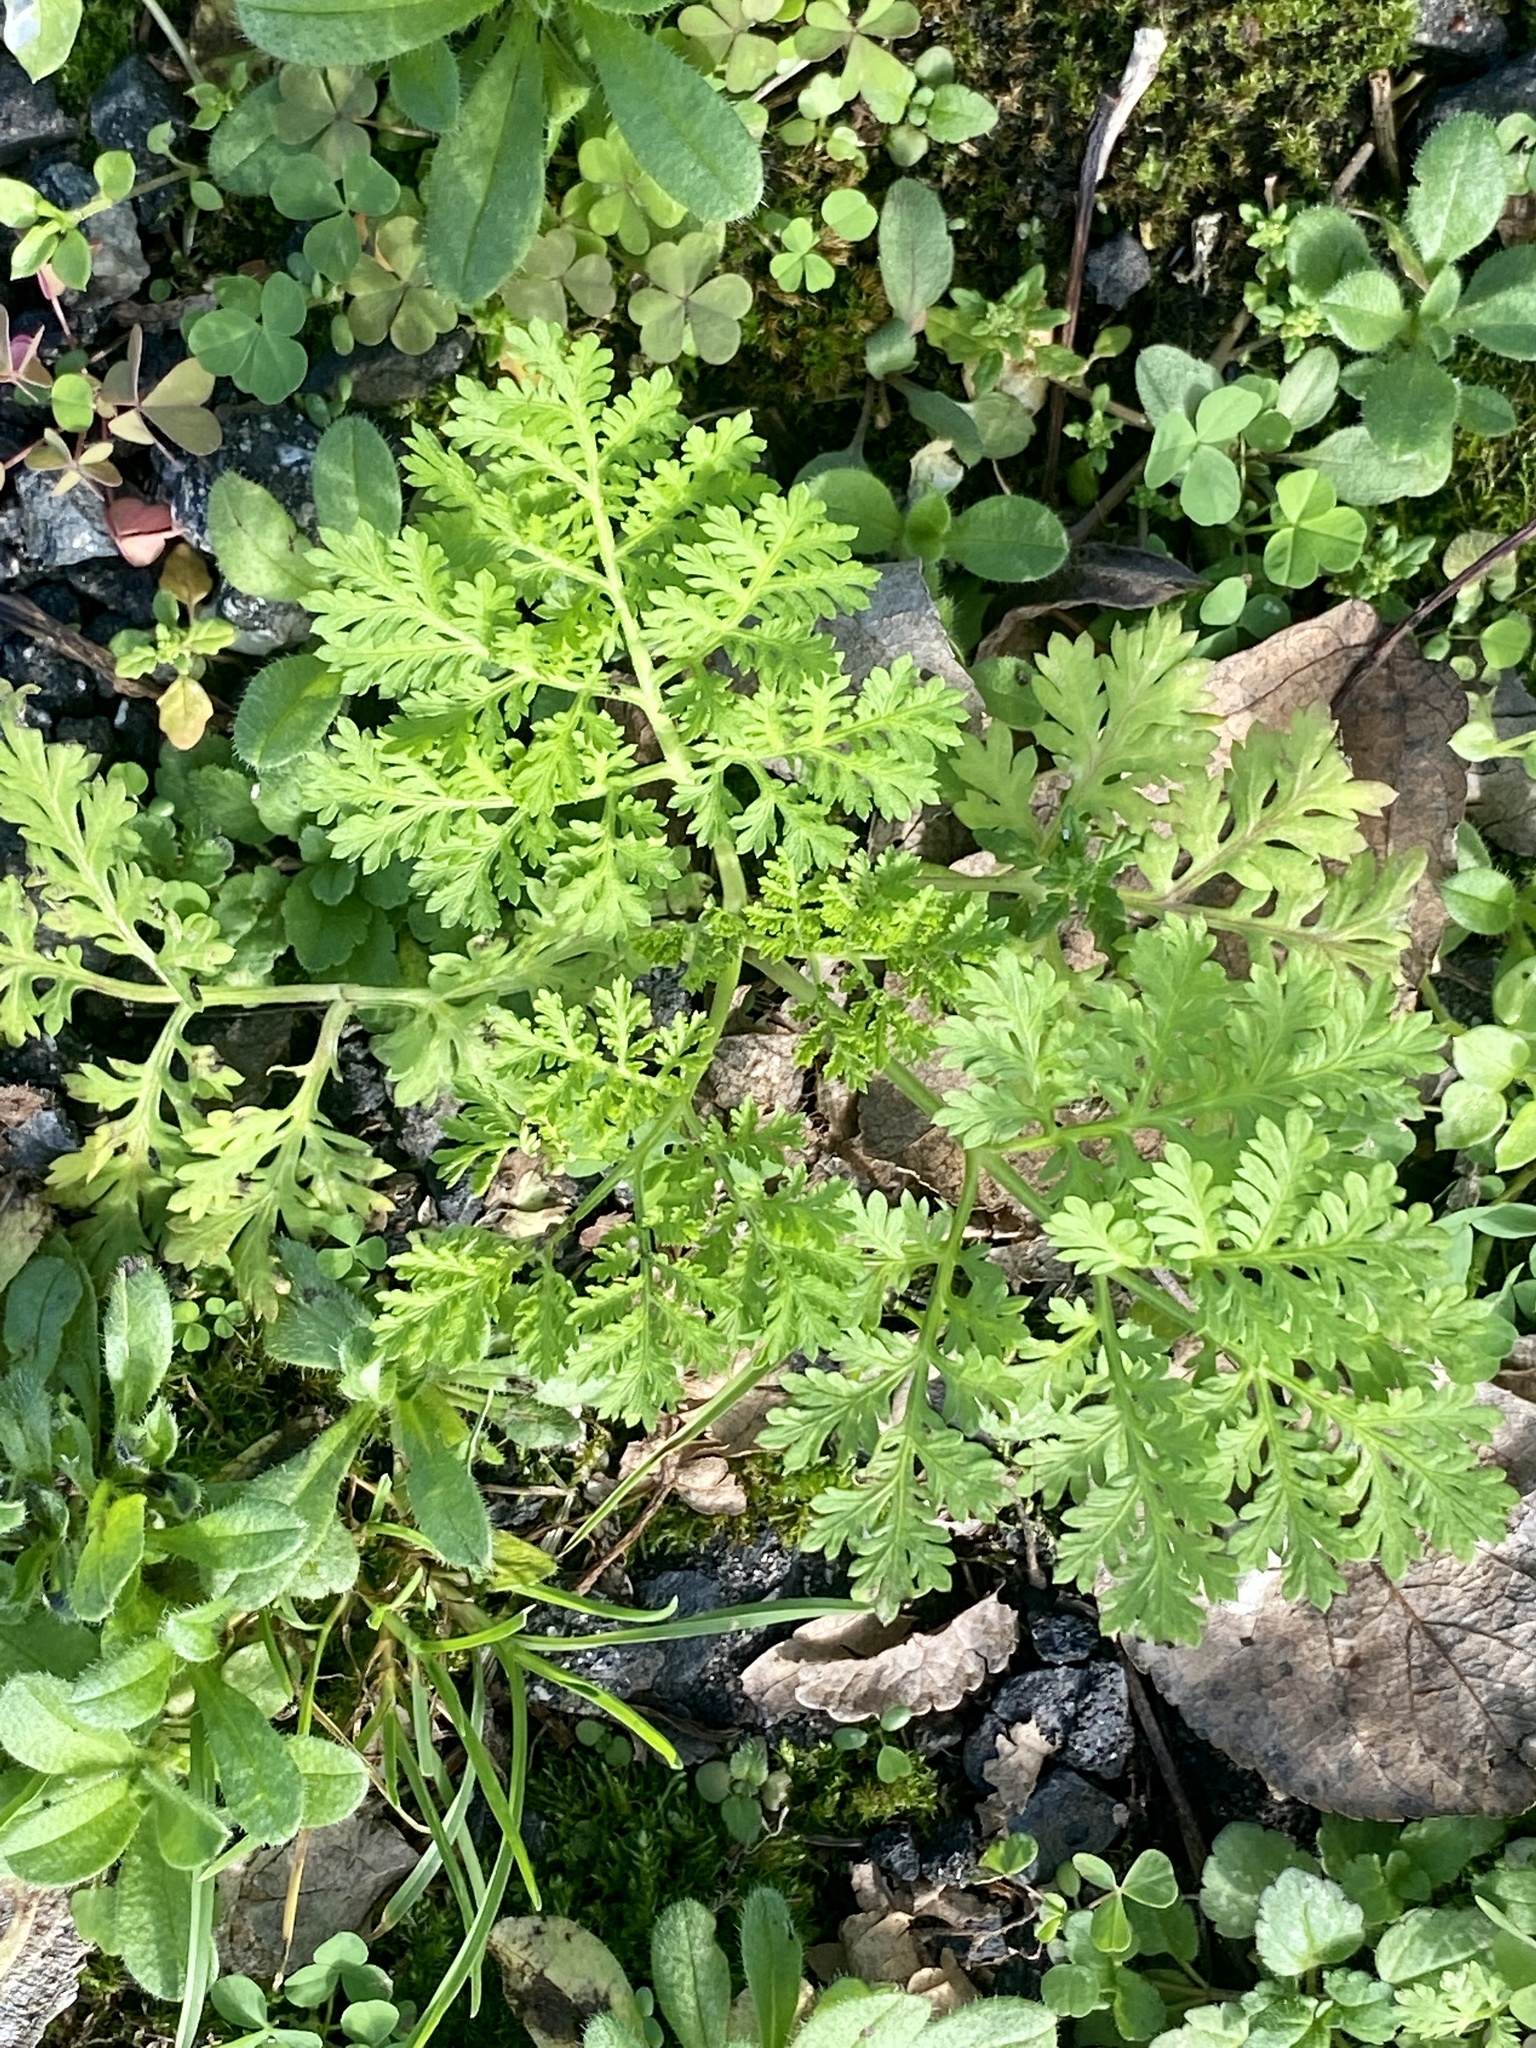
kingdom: Plantae
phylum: Tracheophyta
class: Magnoliopsida
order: Asterales
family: Asteraceae
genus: Artemisia
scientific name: Artemisia annua
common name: Sweet sagewort
